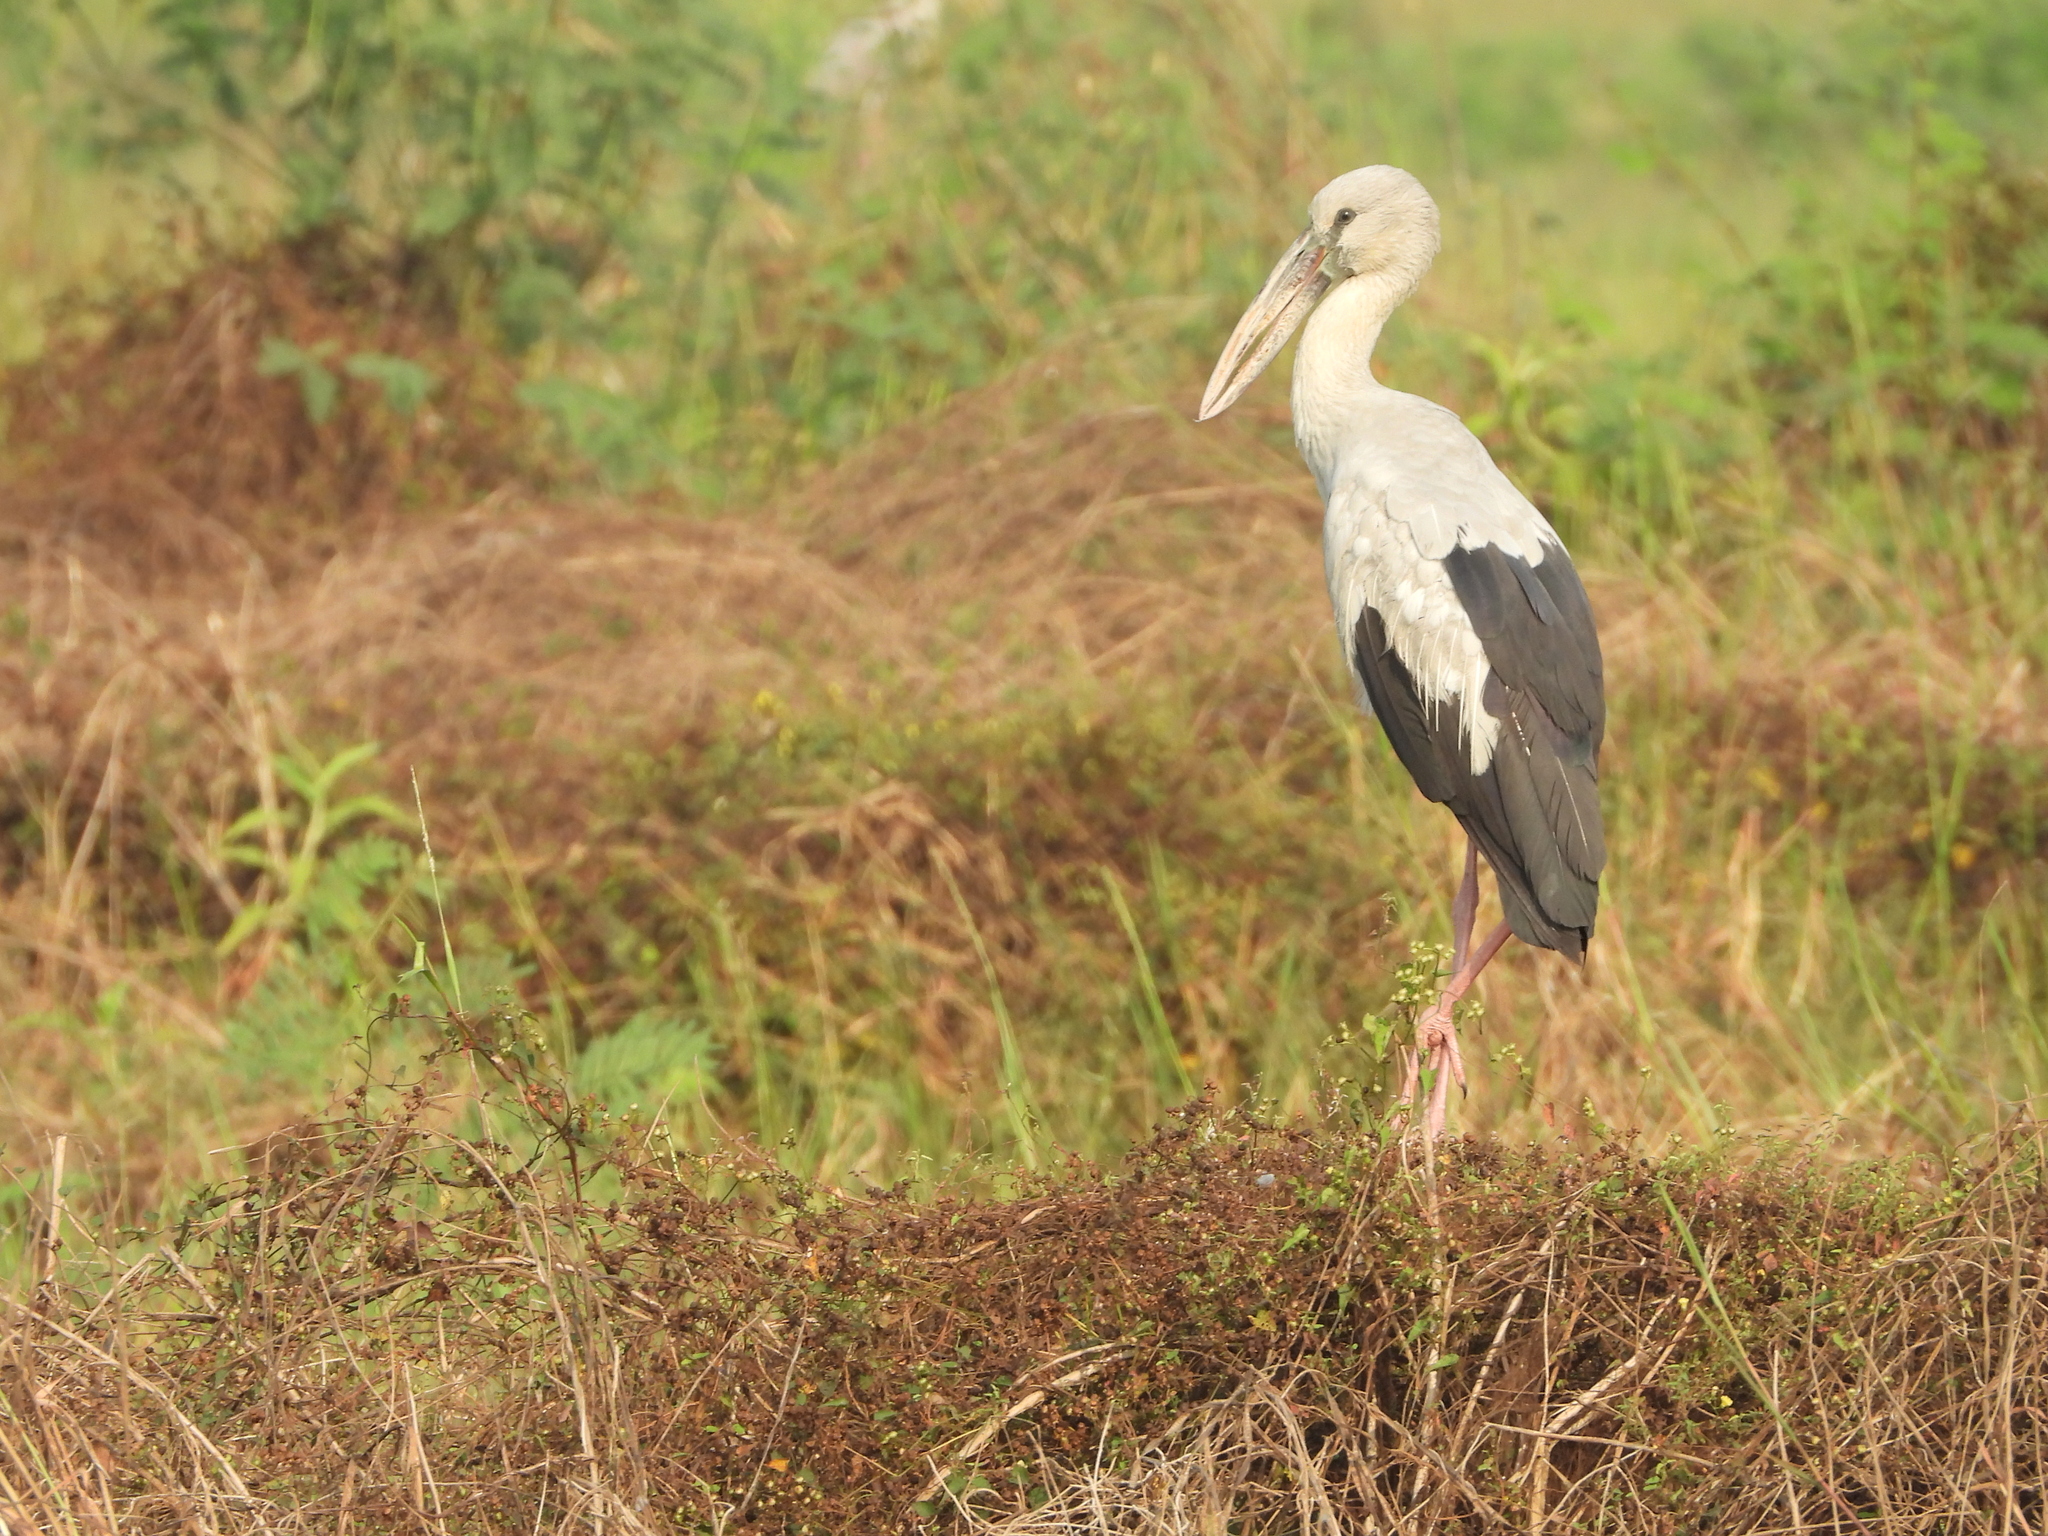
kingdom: Animalia
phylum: Chordata
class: Aves
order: Ciconiiformes
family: Ciconiidae
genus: Anastomus
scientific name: Anastomus oscitans
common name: Asian openbill
